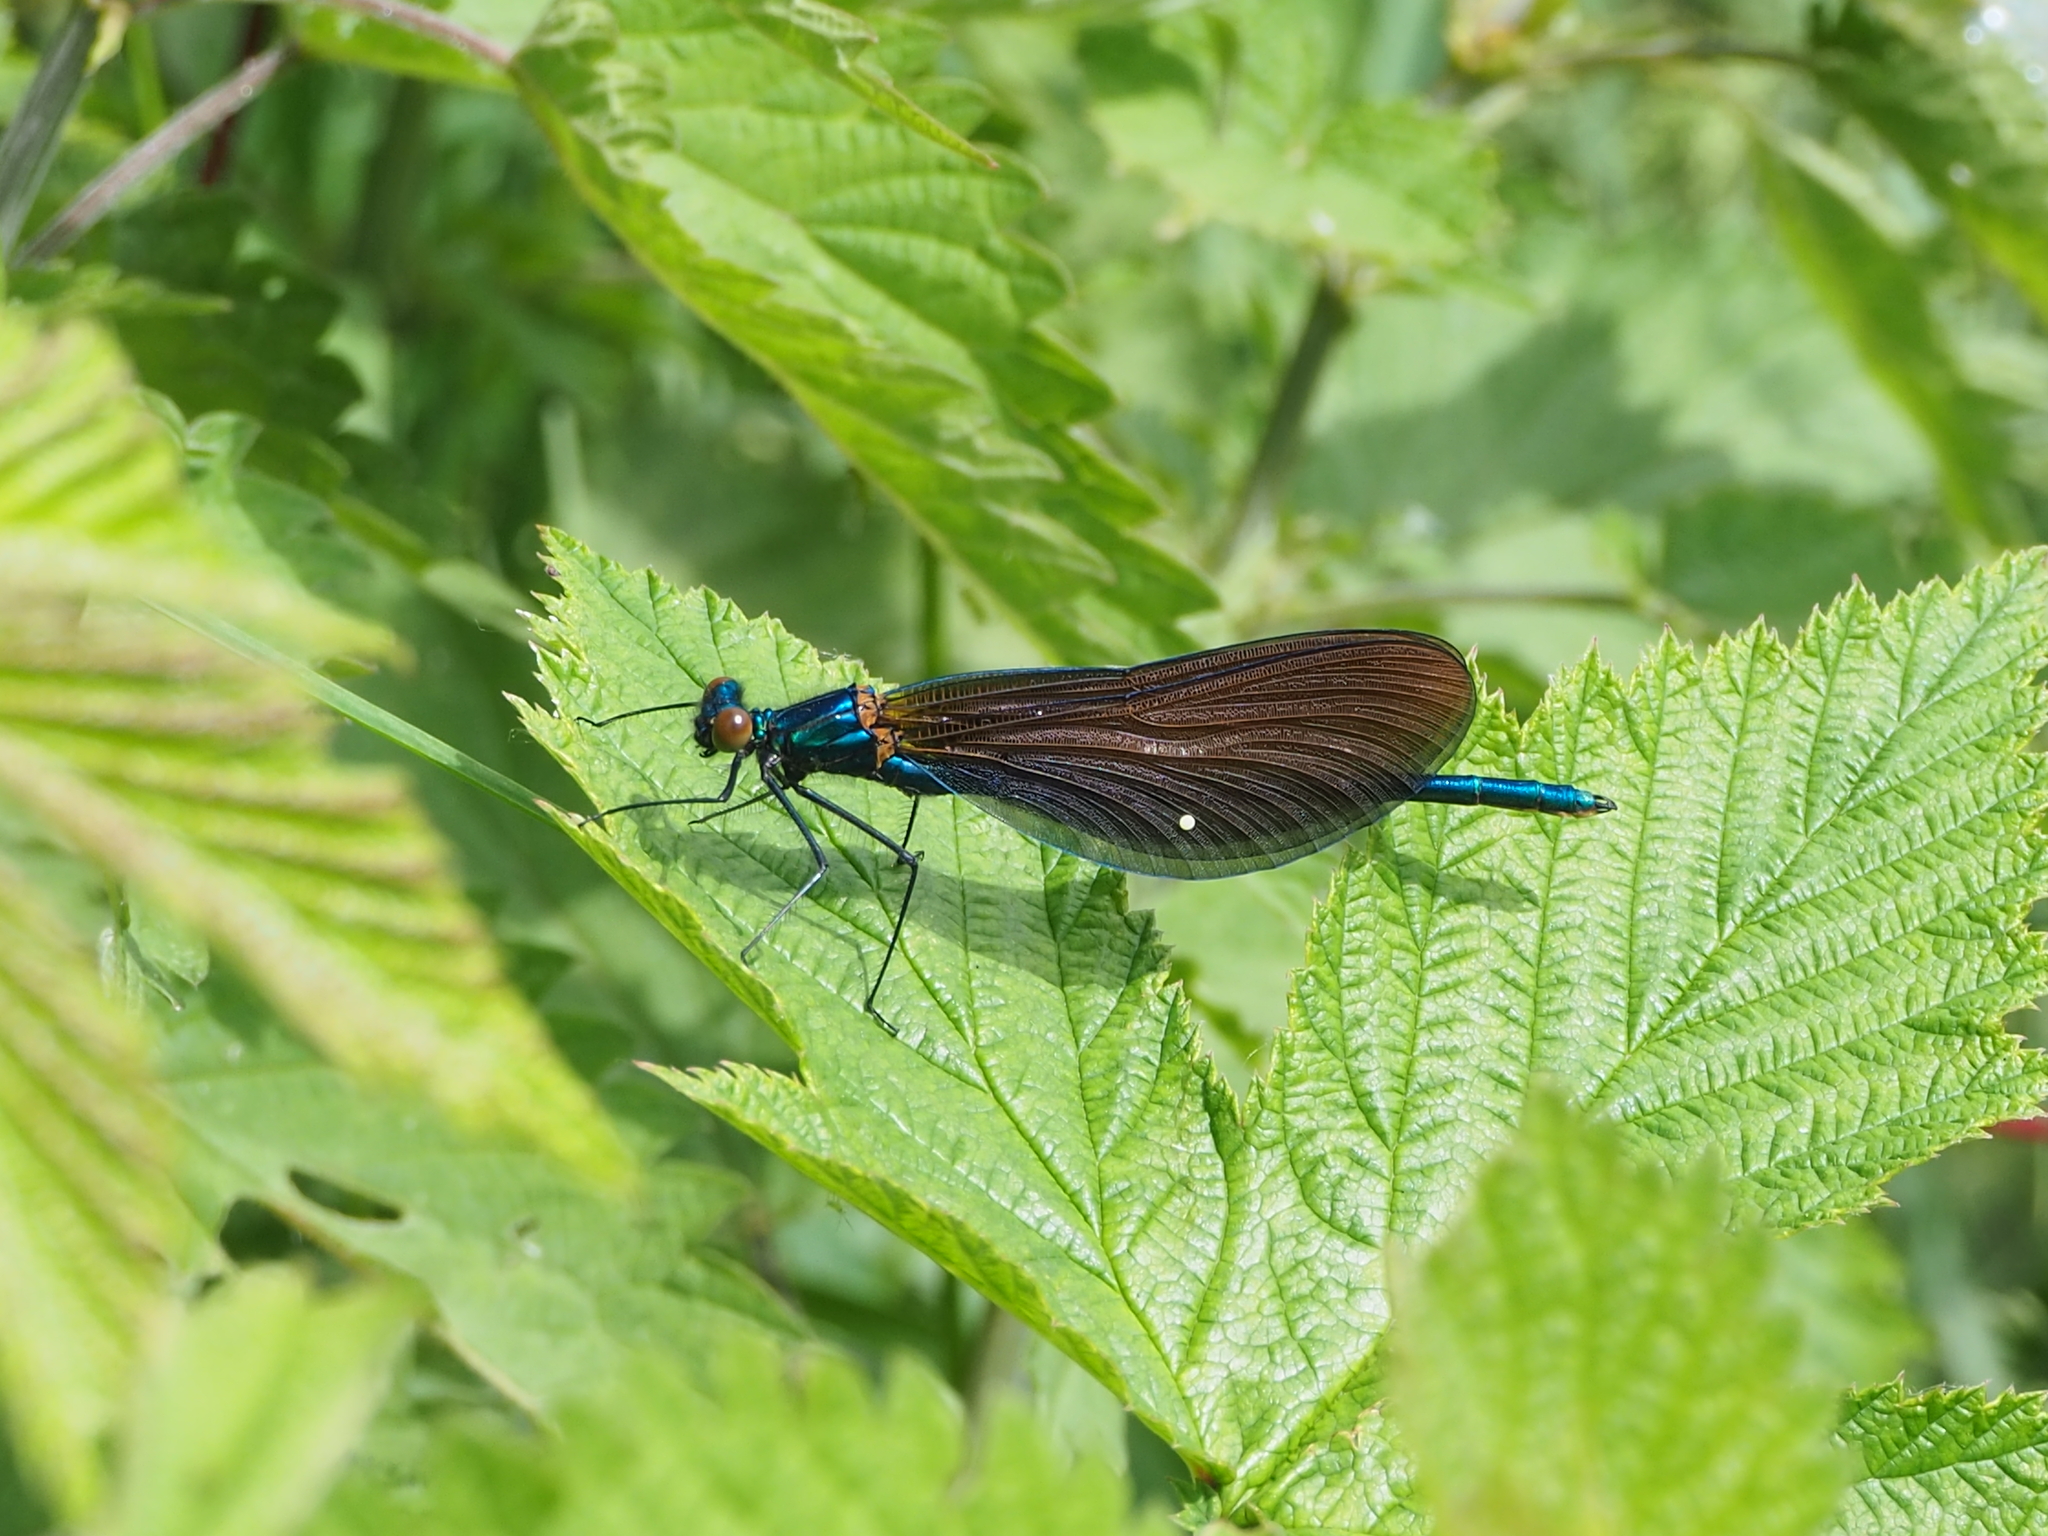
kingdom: Animalia
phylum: Arthropoda
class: Insecta
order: Odonata
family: Calopterygidae
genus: Calopteryx
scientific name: Calopteryx virgo
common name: Beautiful demoiselle
